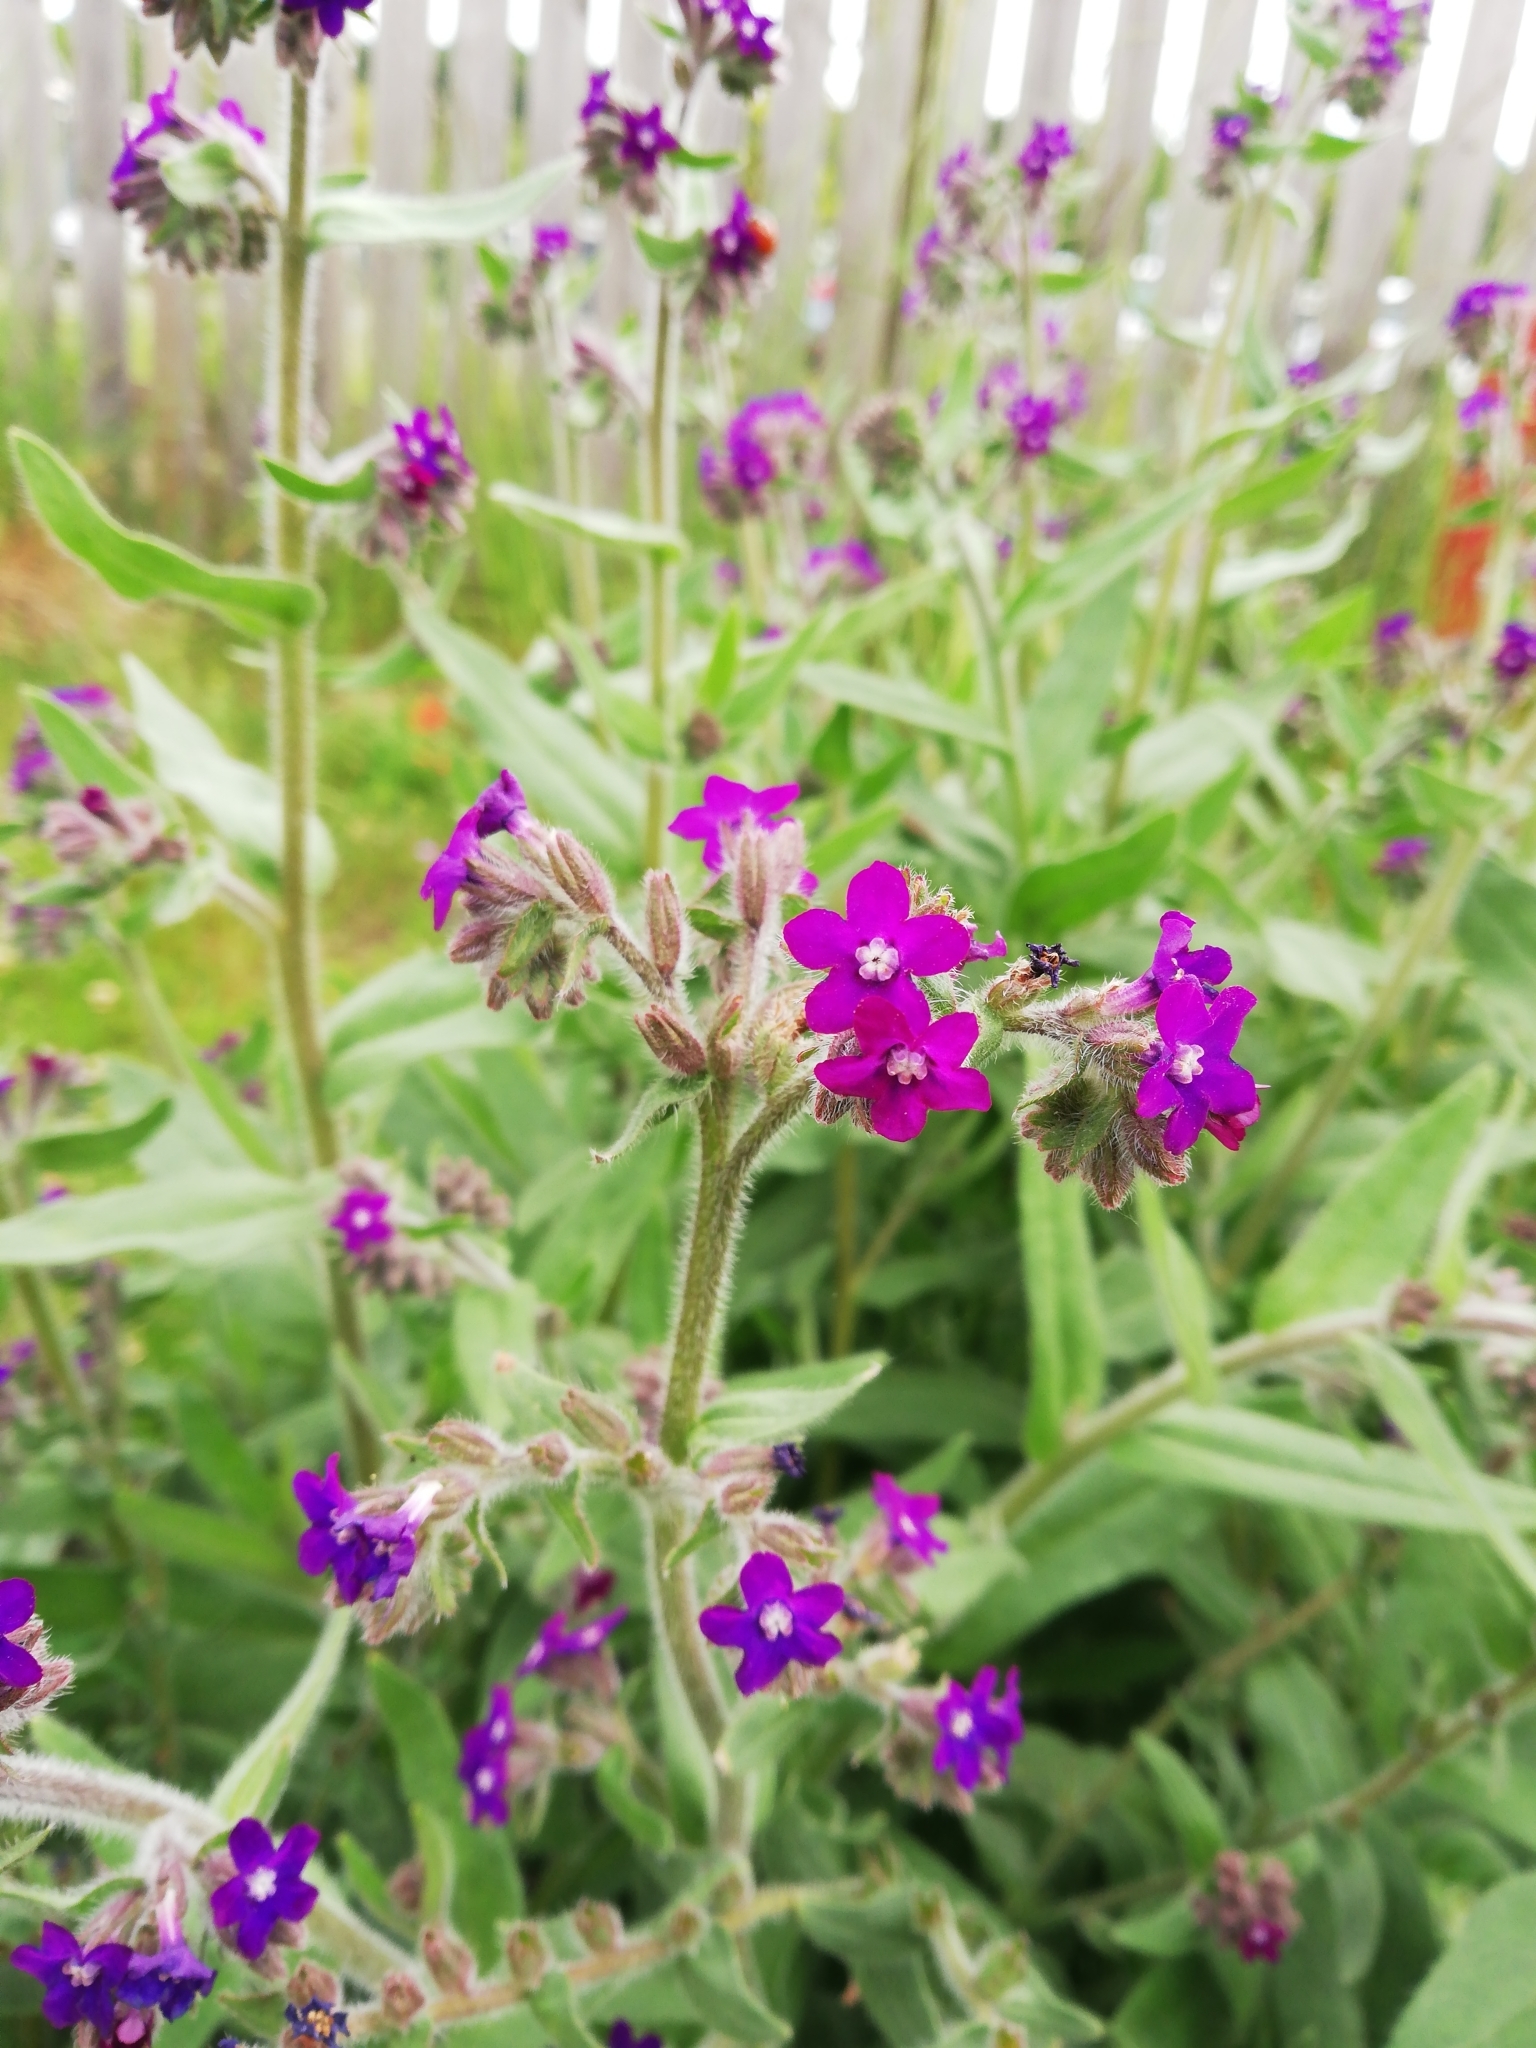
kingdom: Plantae
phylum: Tracheophyta
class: Magnoliopsida
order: Boraginales
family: Boraginaceae
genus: Anchusa
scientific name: Anchusa officinalis
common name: Alkanet
